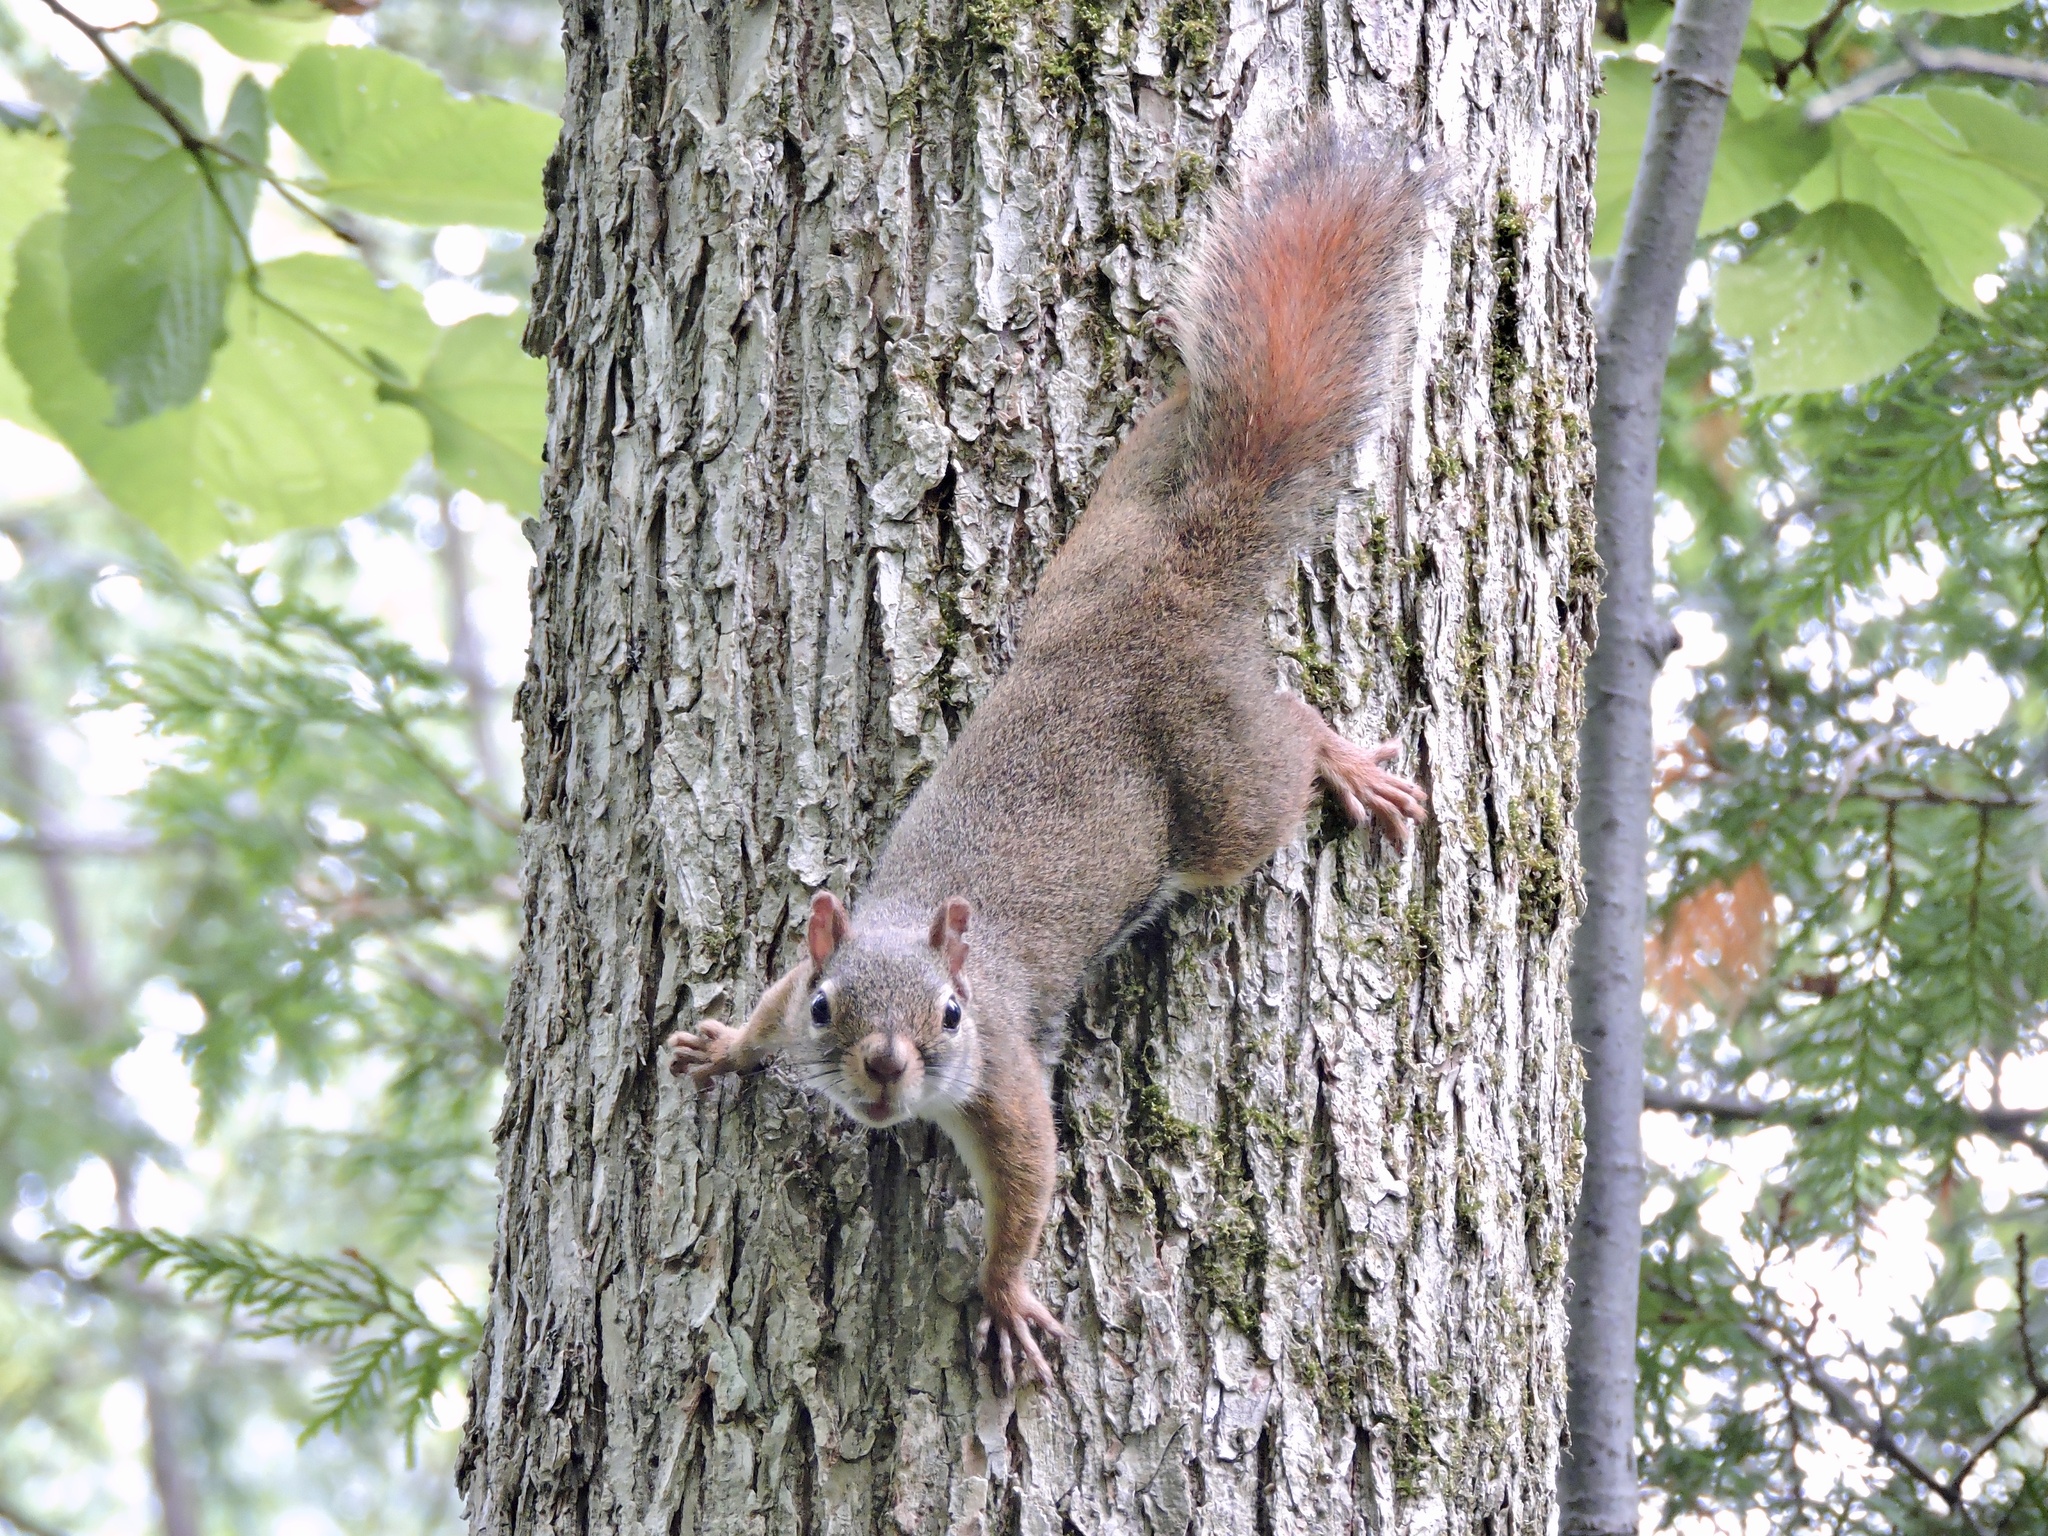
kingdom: Animalia
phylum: Chordata
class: Mammalia
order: Rodentia
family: Sciuridae
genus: Tamiasciurus
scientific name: Tamiasciurus hudsonicus
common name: Red squirrel
